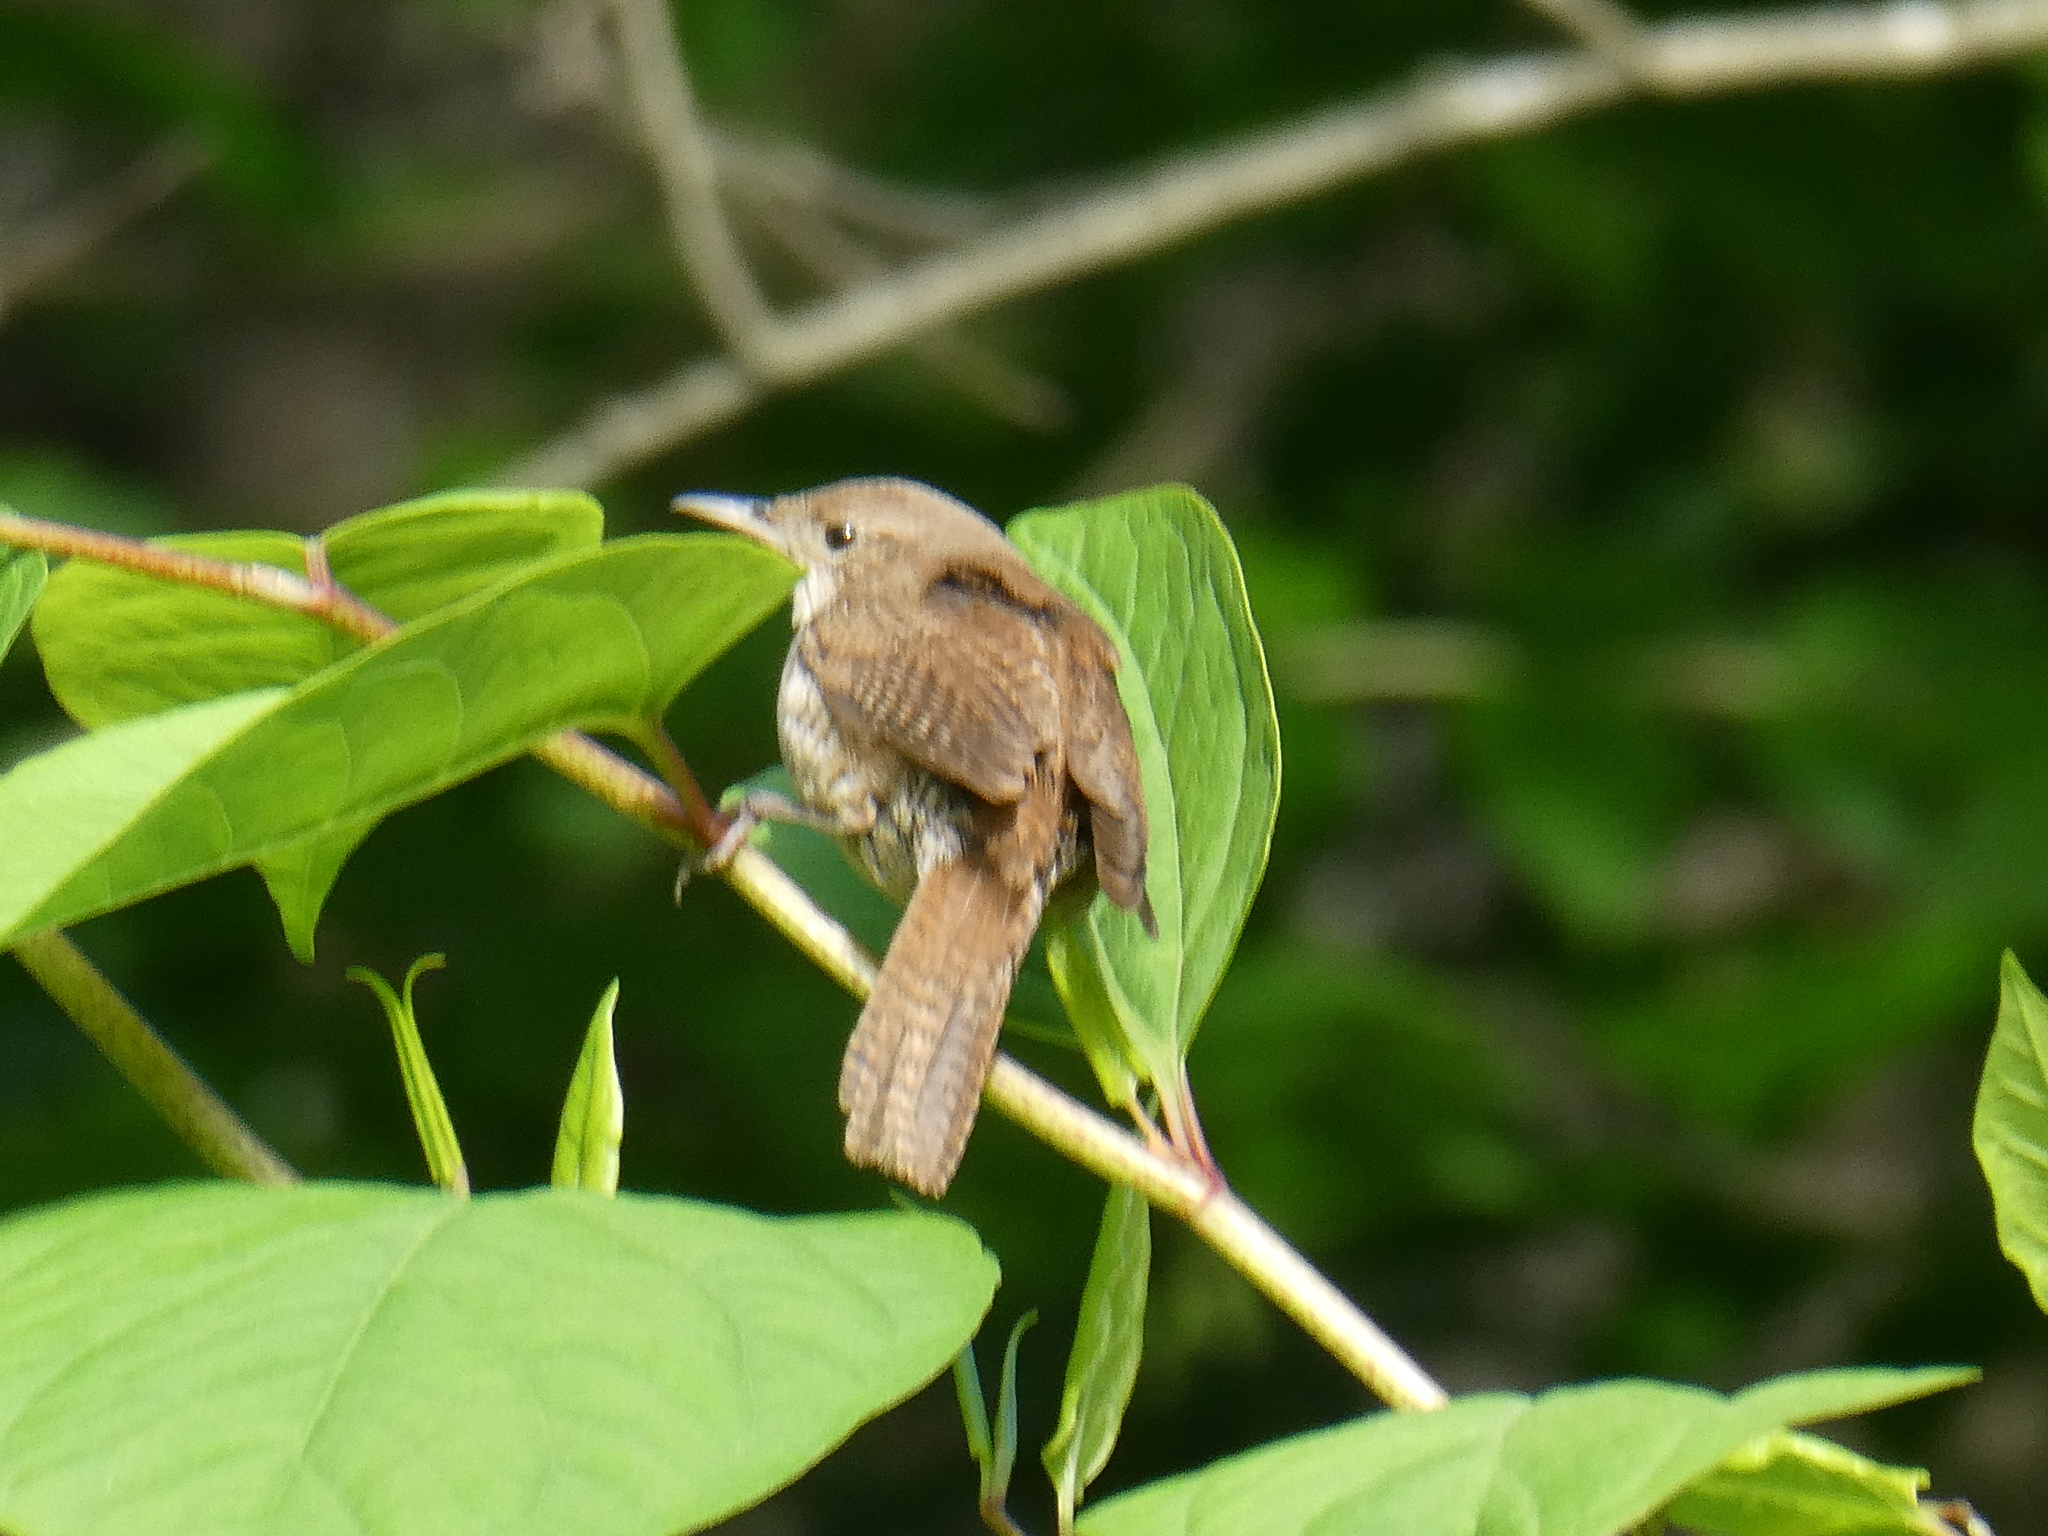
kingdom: Animalia
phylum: Chordata
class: Aves
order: Passeriformes
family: Troglodytidae
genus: Troglodytes
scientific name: Troglodytes aedon
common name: House wren
